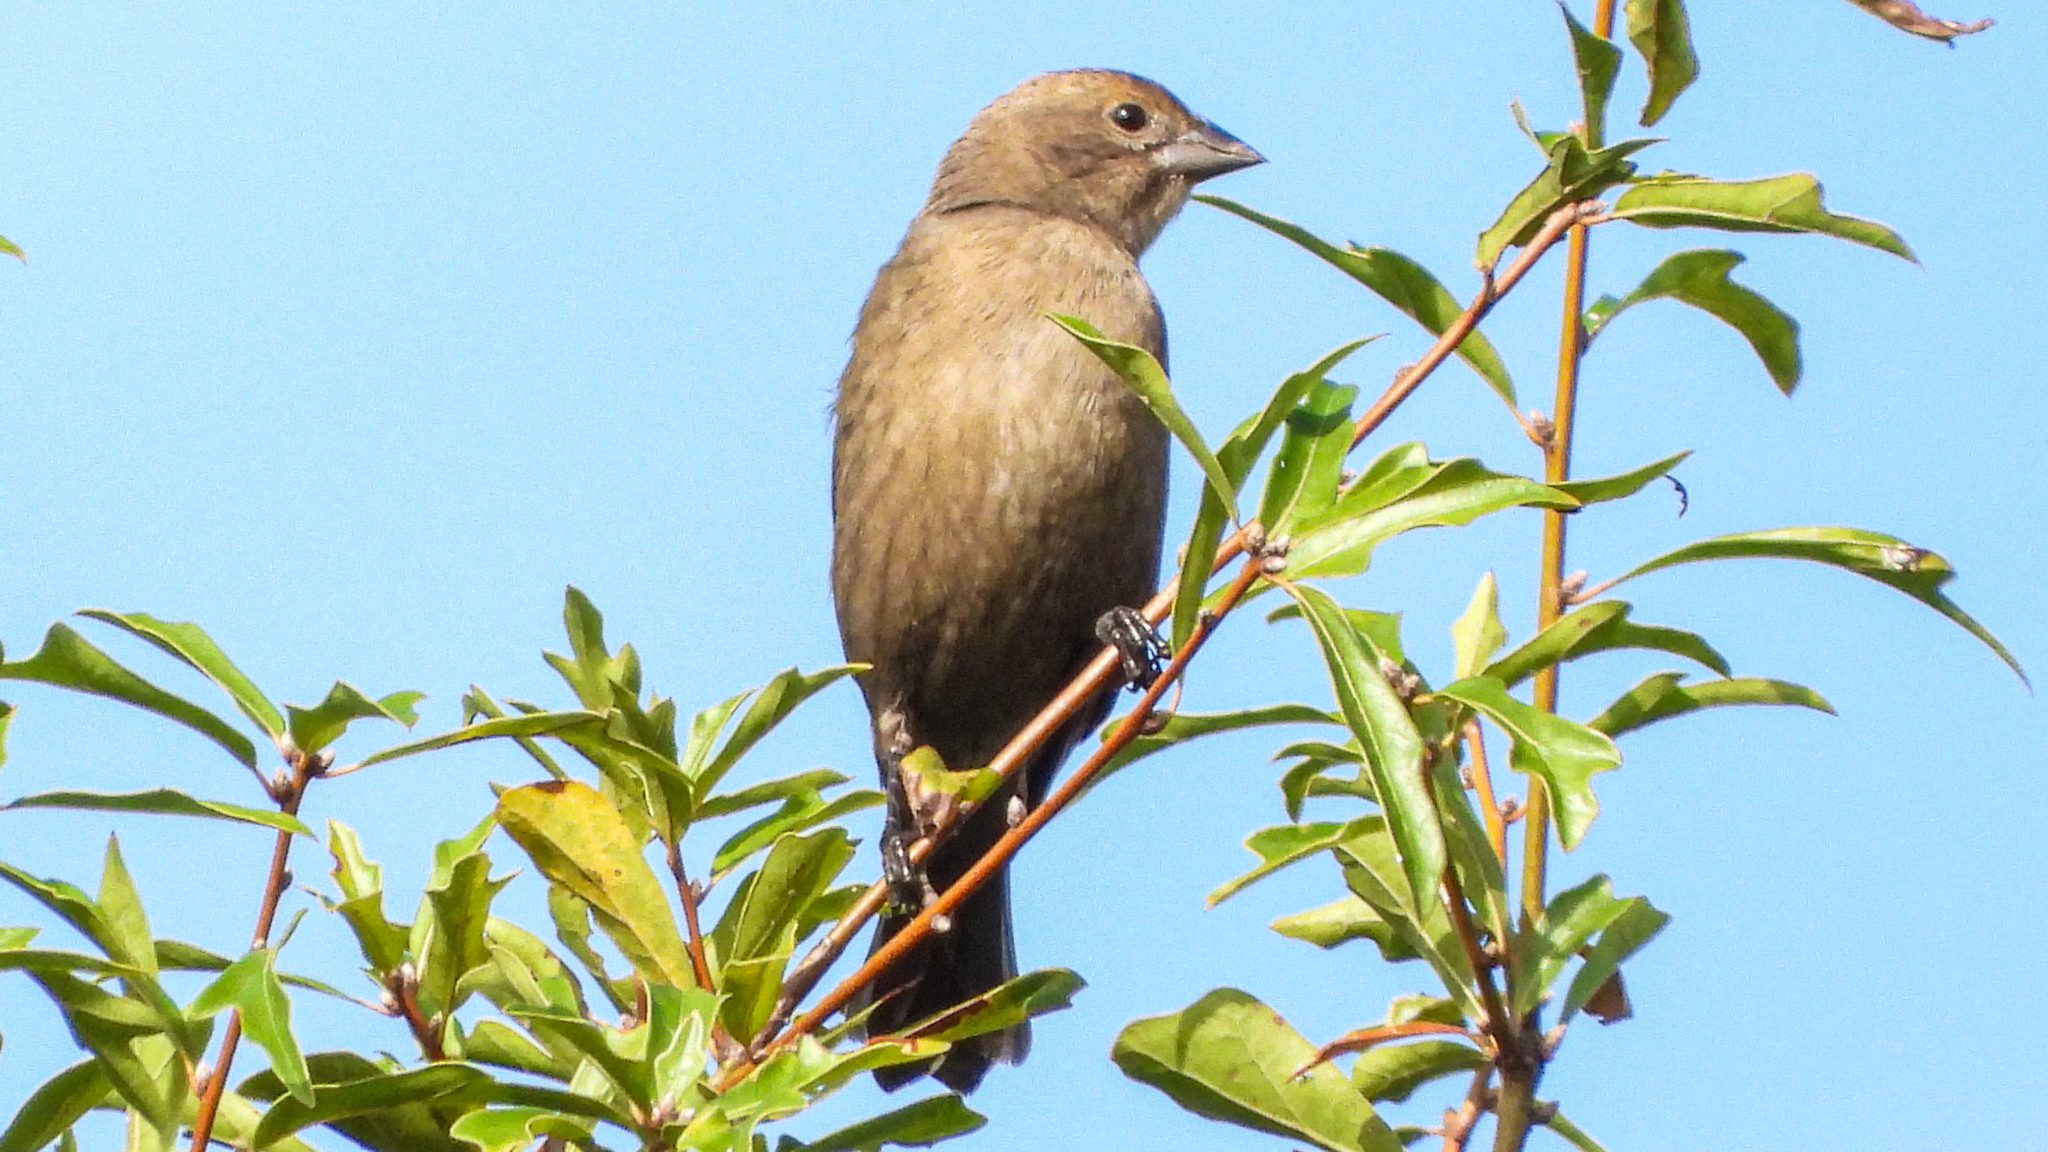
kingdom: Animalia
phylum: Chordata
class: Aves
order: Passeriformes
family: Icteridae
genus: Molothrus
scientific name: Molothrus ater
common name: Brown-headed cowbird
